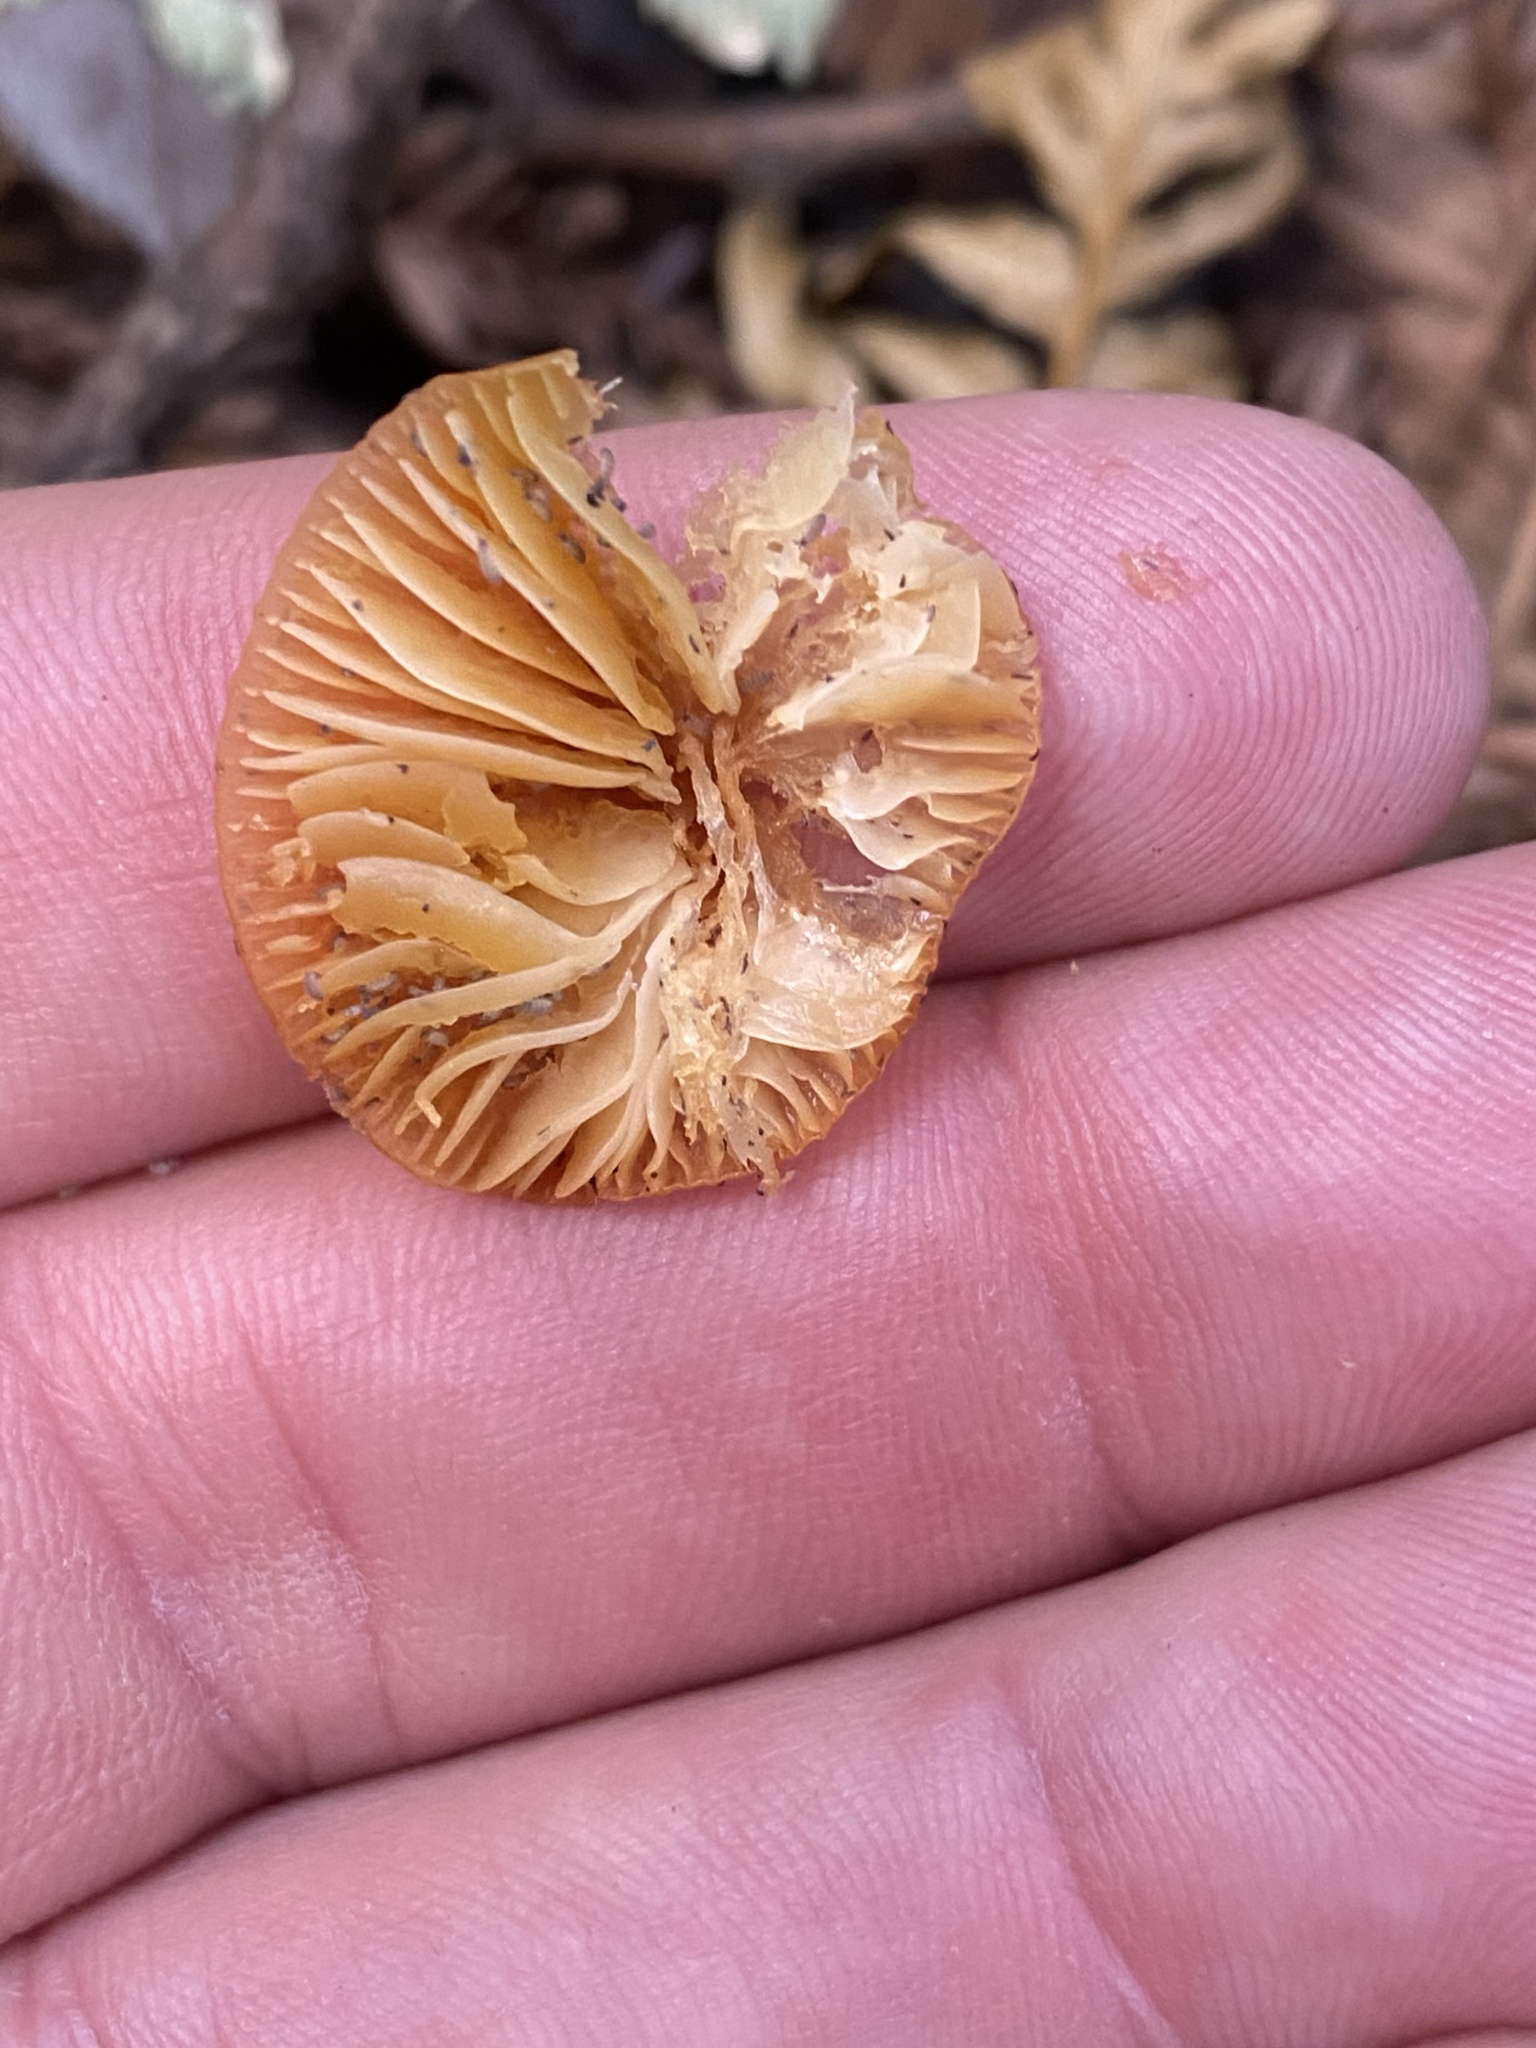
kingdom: Fungi
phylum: Basidiomycota
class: Agaricomycetes
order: Agaricales
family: Hygrophoraceae
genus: Gliophorus
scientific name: Gliophorus psittacinus
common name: Parrot wax-cap
